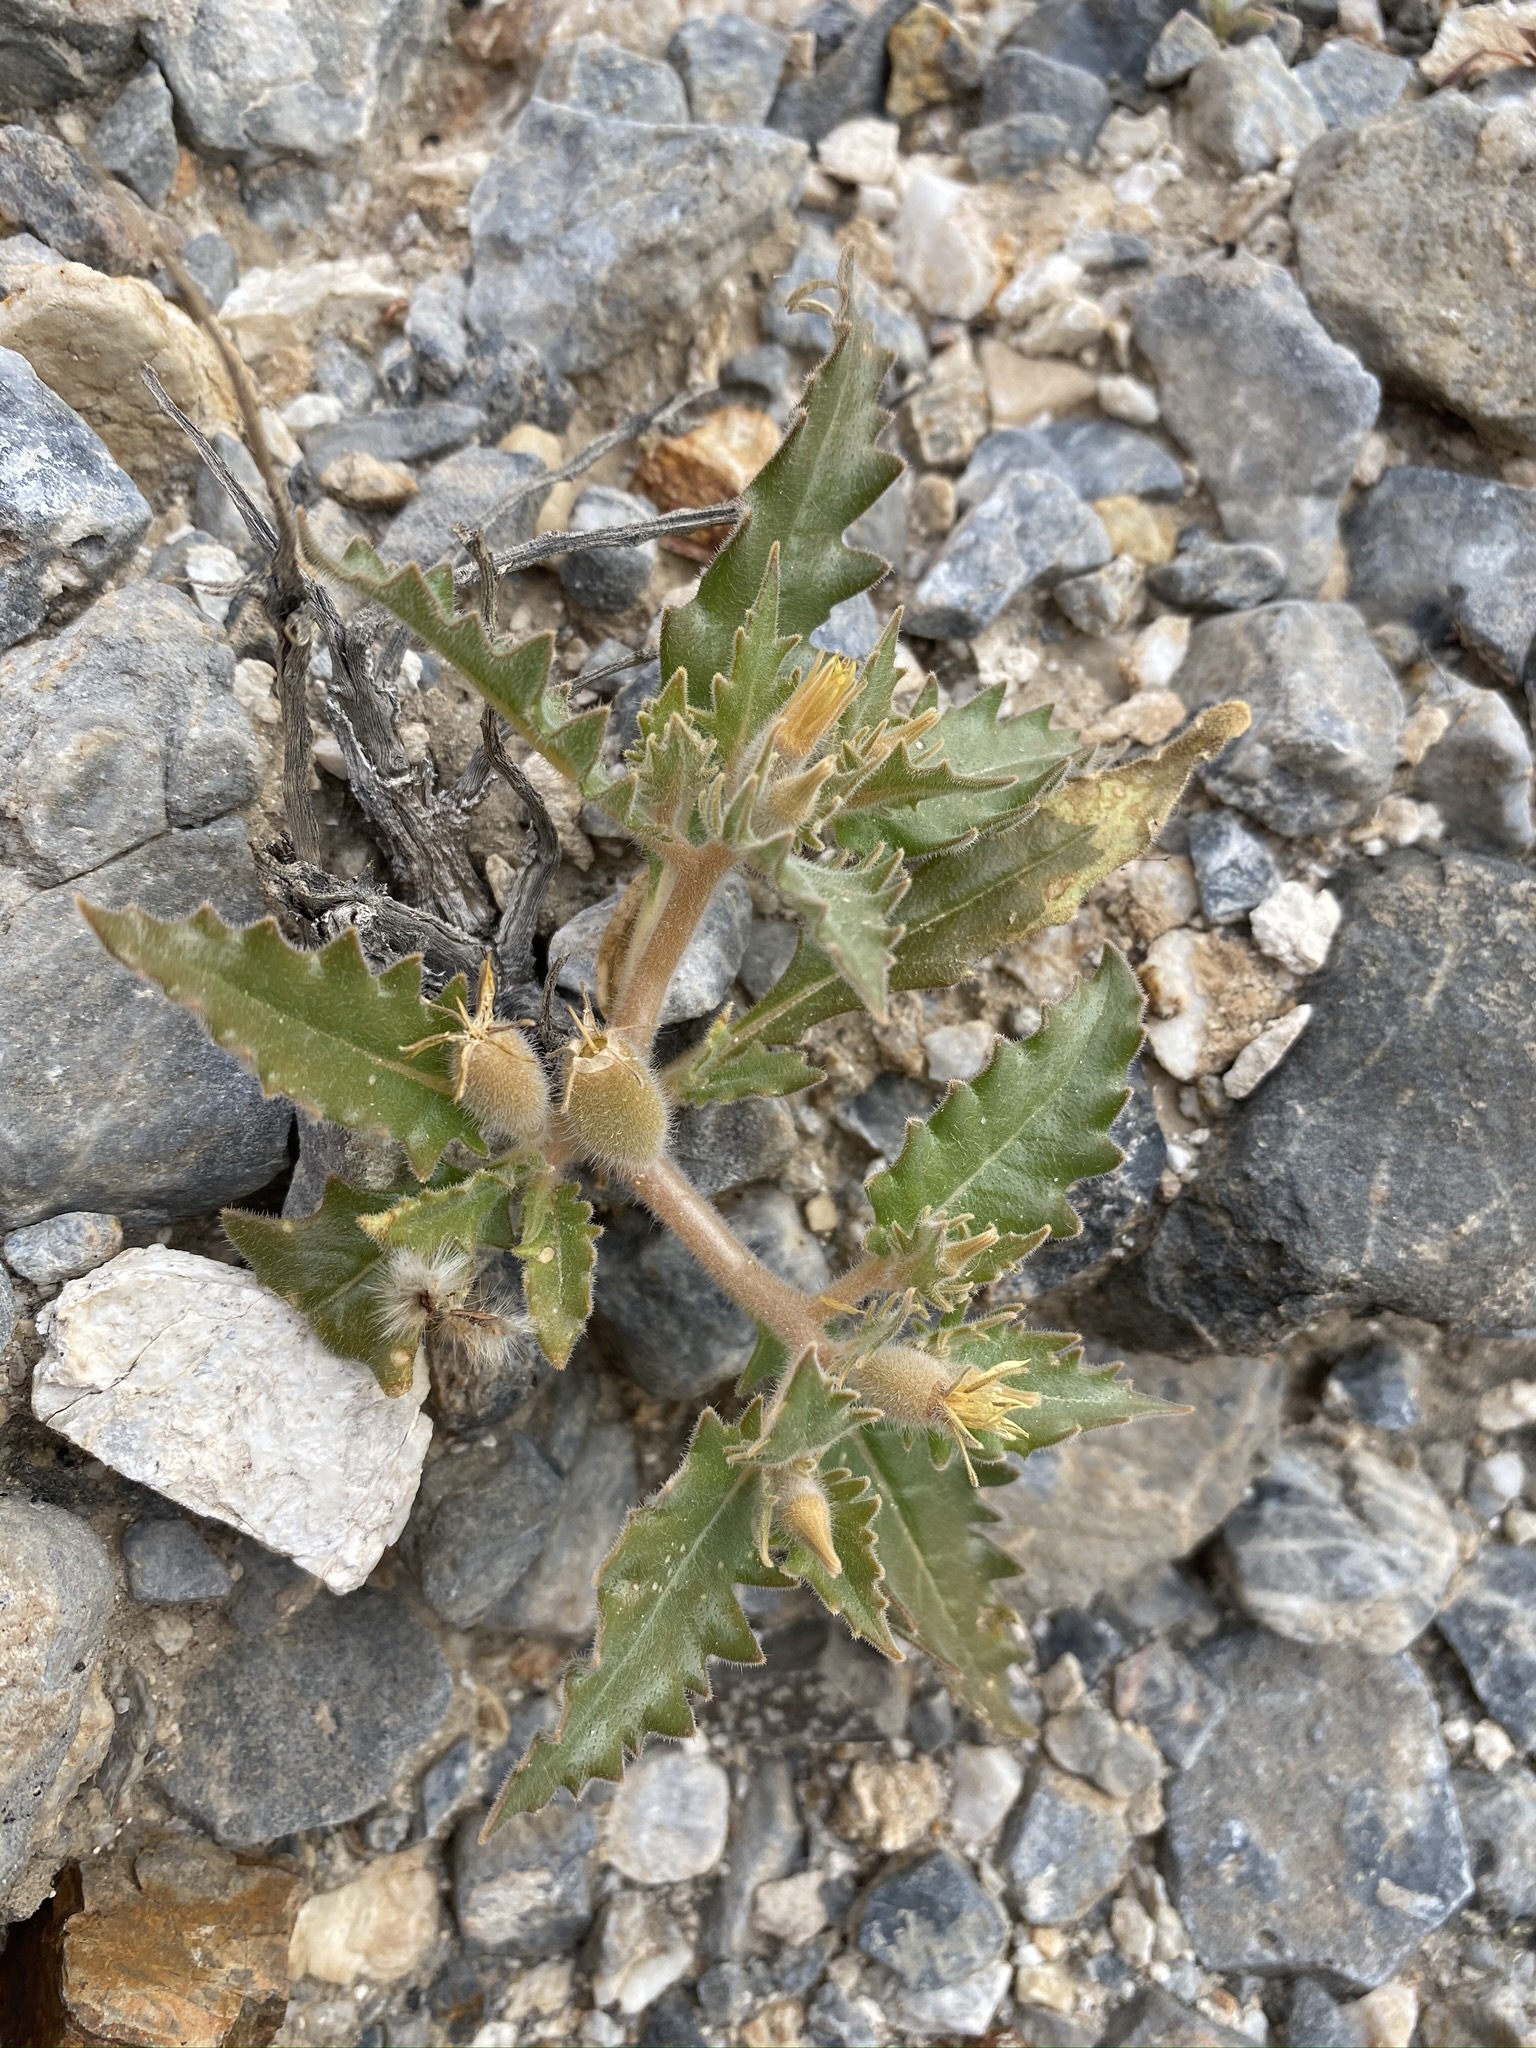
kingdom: Plantae
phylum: Tracheophyta
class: Magnoliopsida
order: Cornales
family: Loasaceae
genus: Mentzelia
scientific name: Mentzelia reflexa
